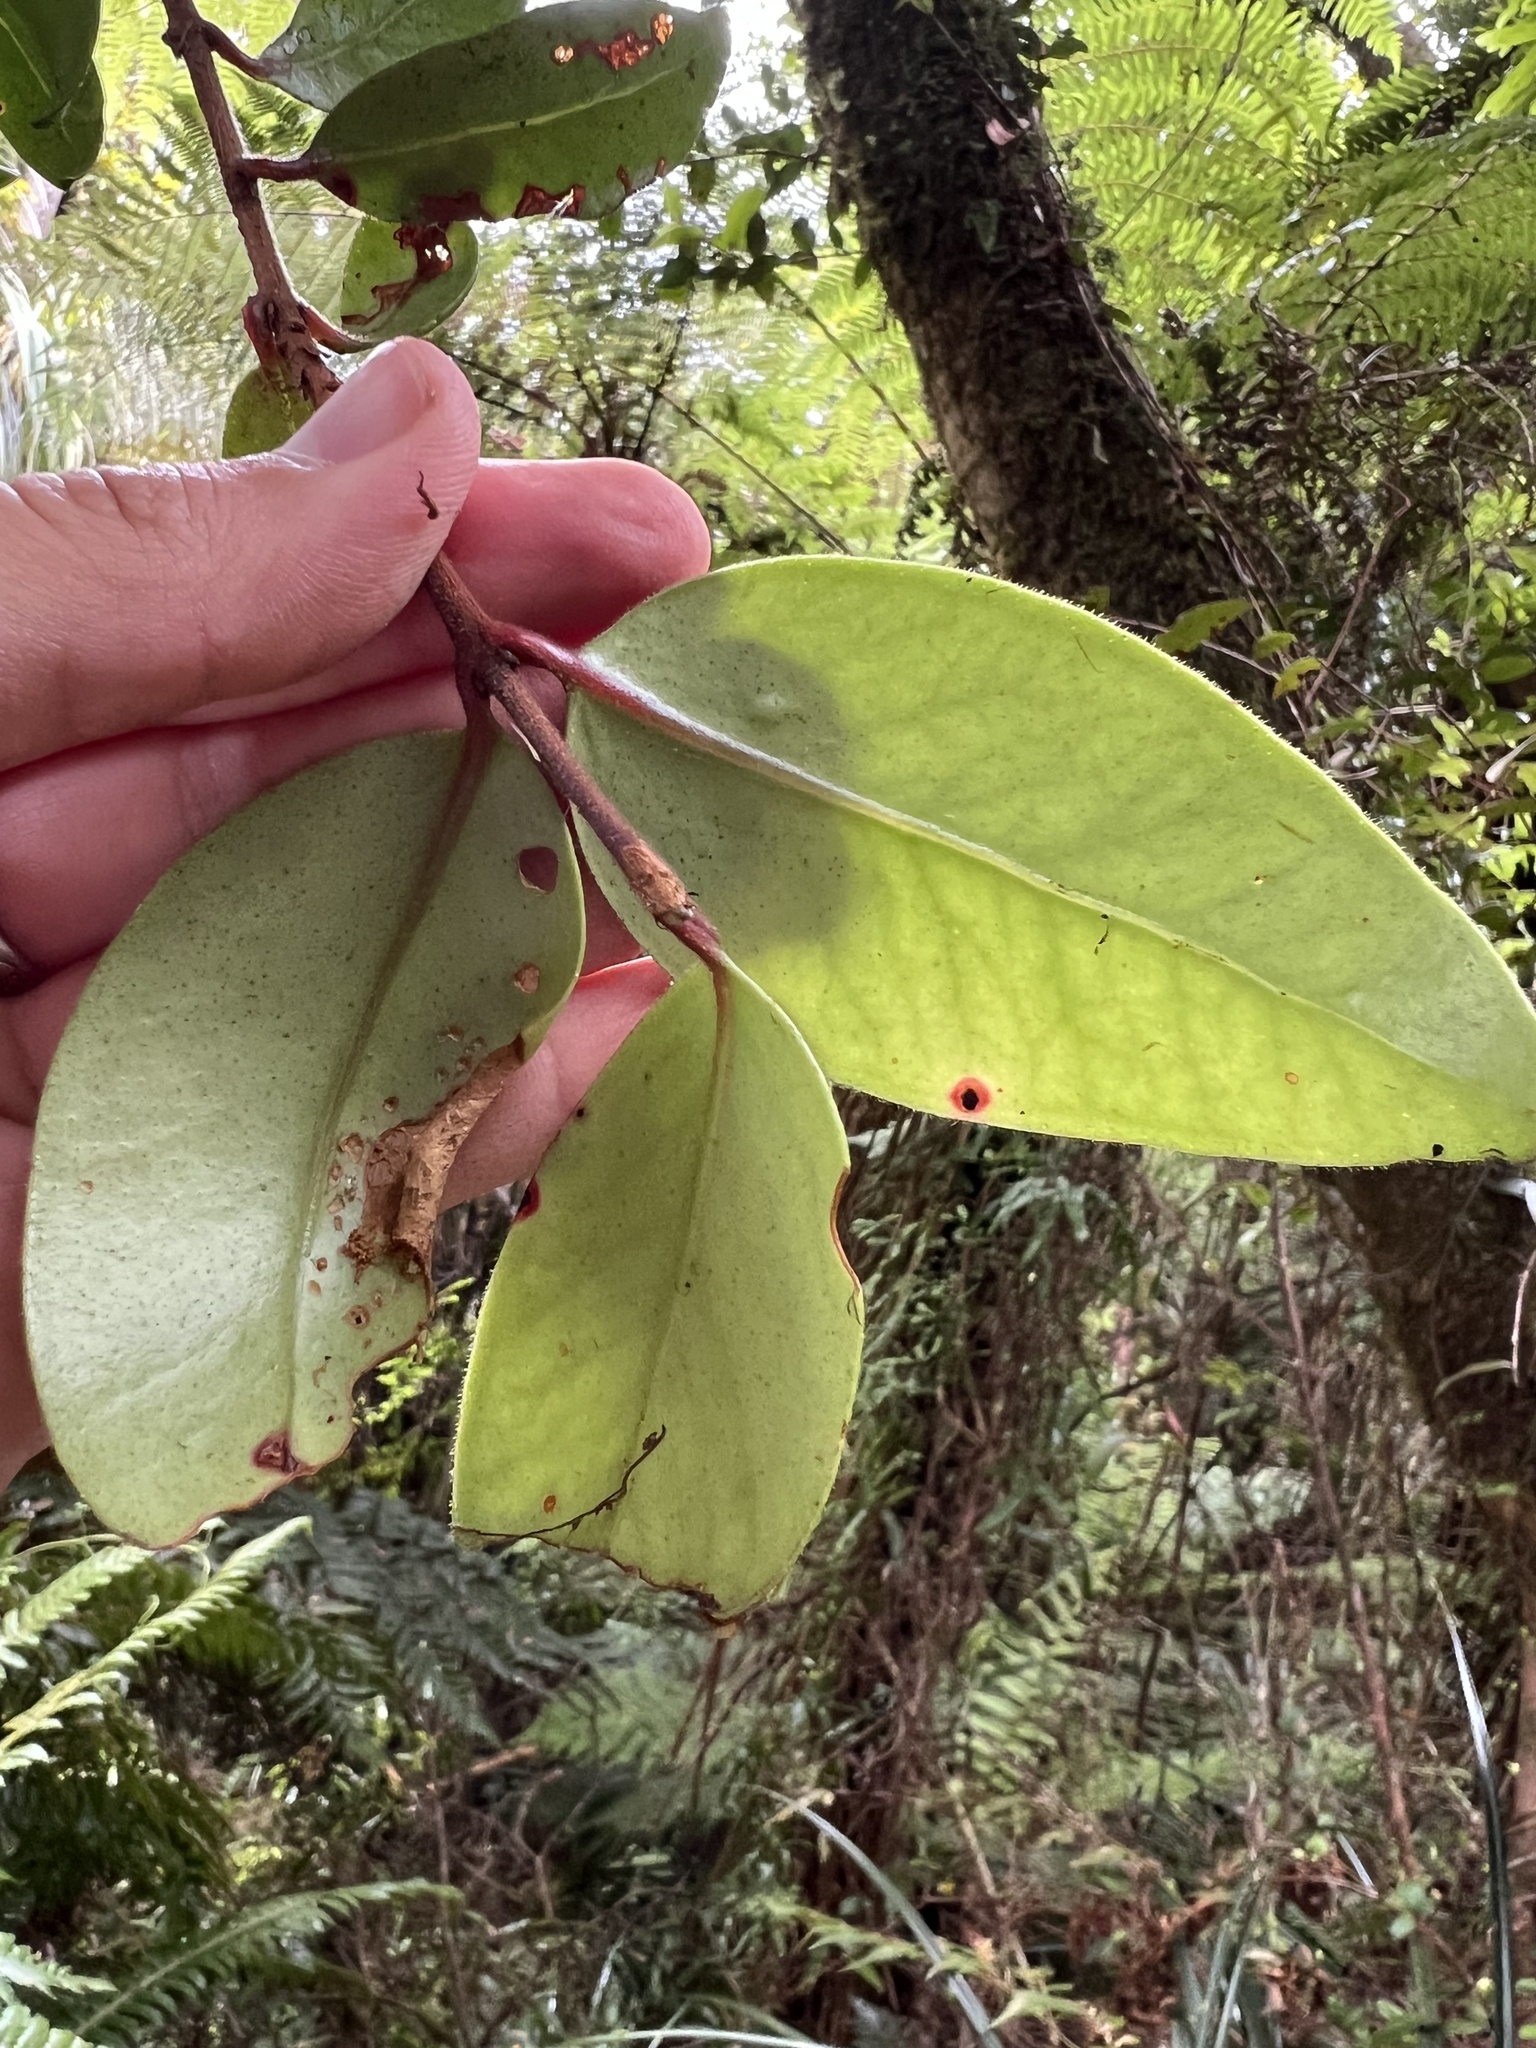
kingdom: Plantae
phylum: Tracheophyta
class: Magnoliopsida
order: Myrtales
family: Myrtaceae
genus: Metrosideros
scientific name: Metrosideros albiflora
